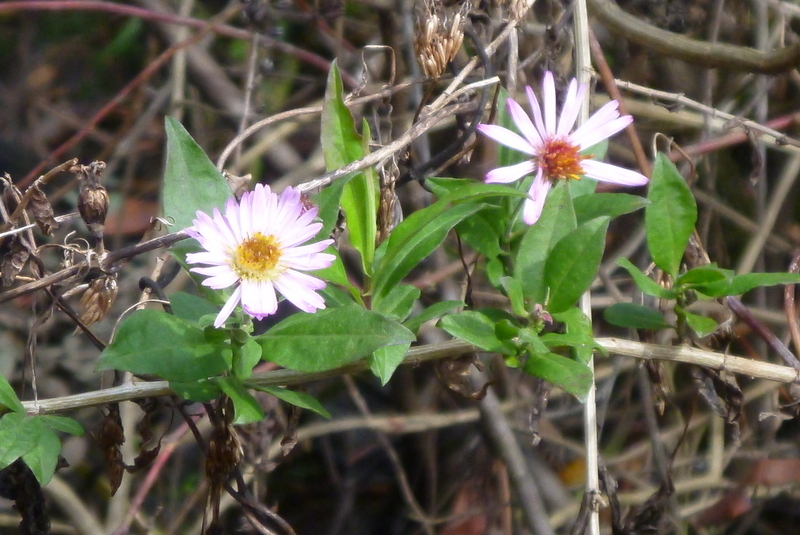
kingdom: Plantae
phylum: Tracheophyta
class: Magnoliopsida
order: Asterales
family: Asteraceae
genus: Ampelaster
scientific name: Ampelaster carolinianus
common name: Climbing aster
